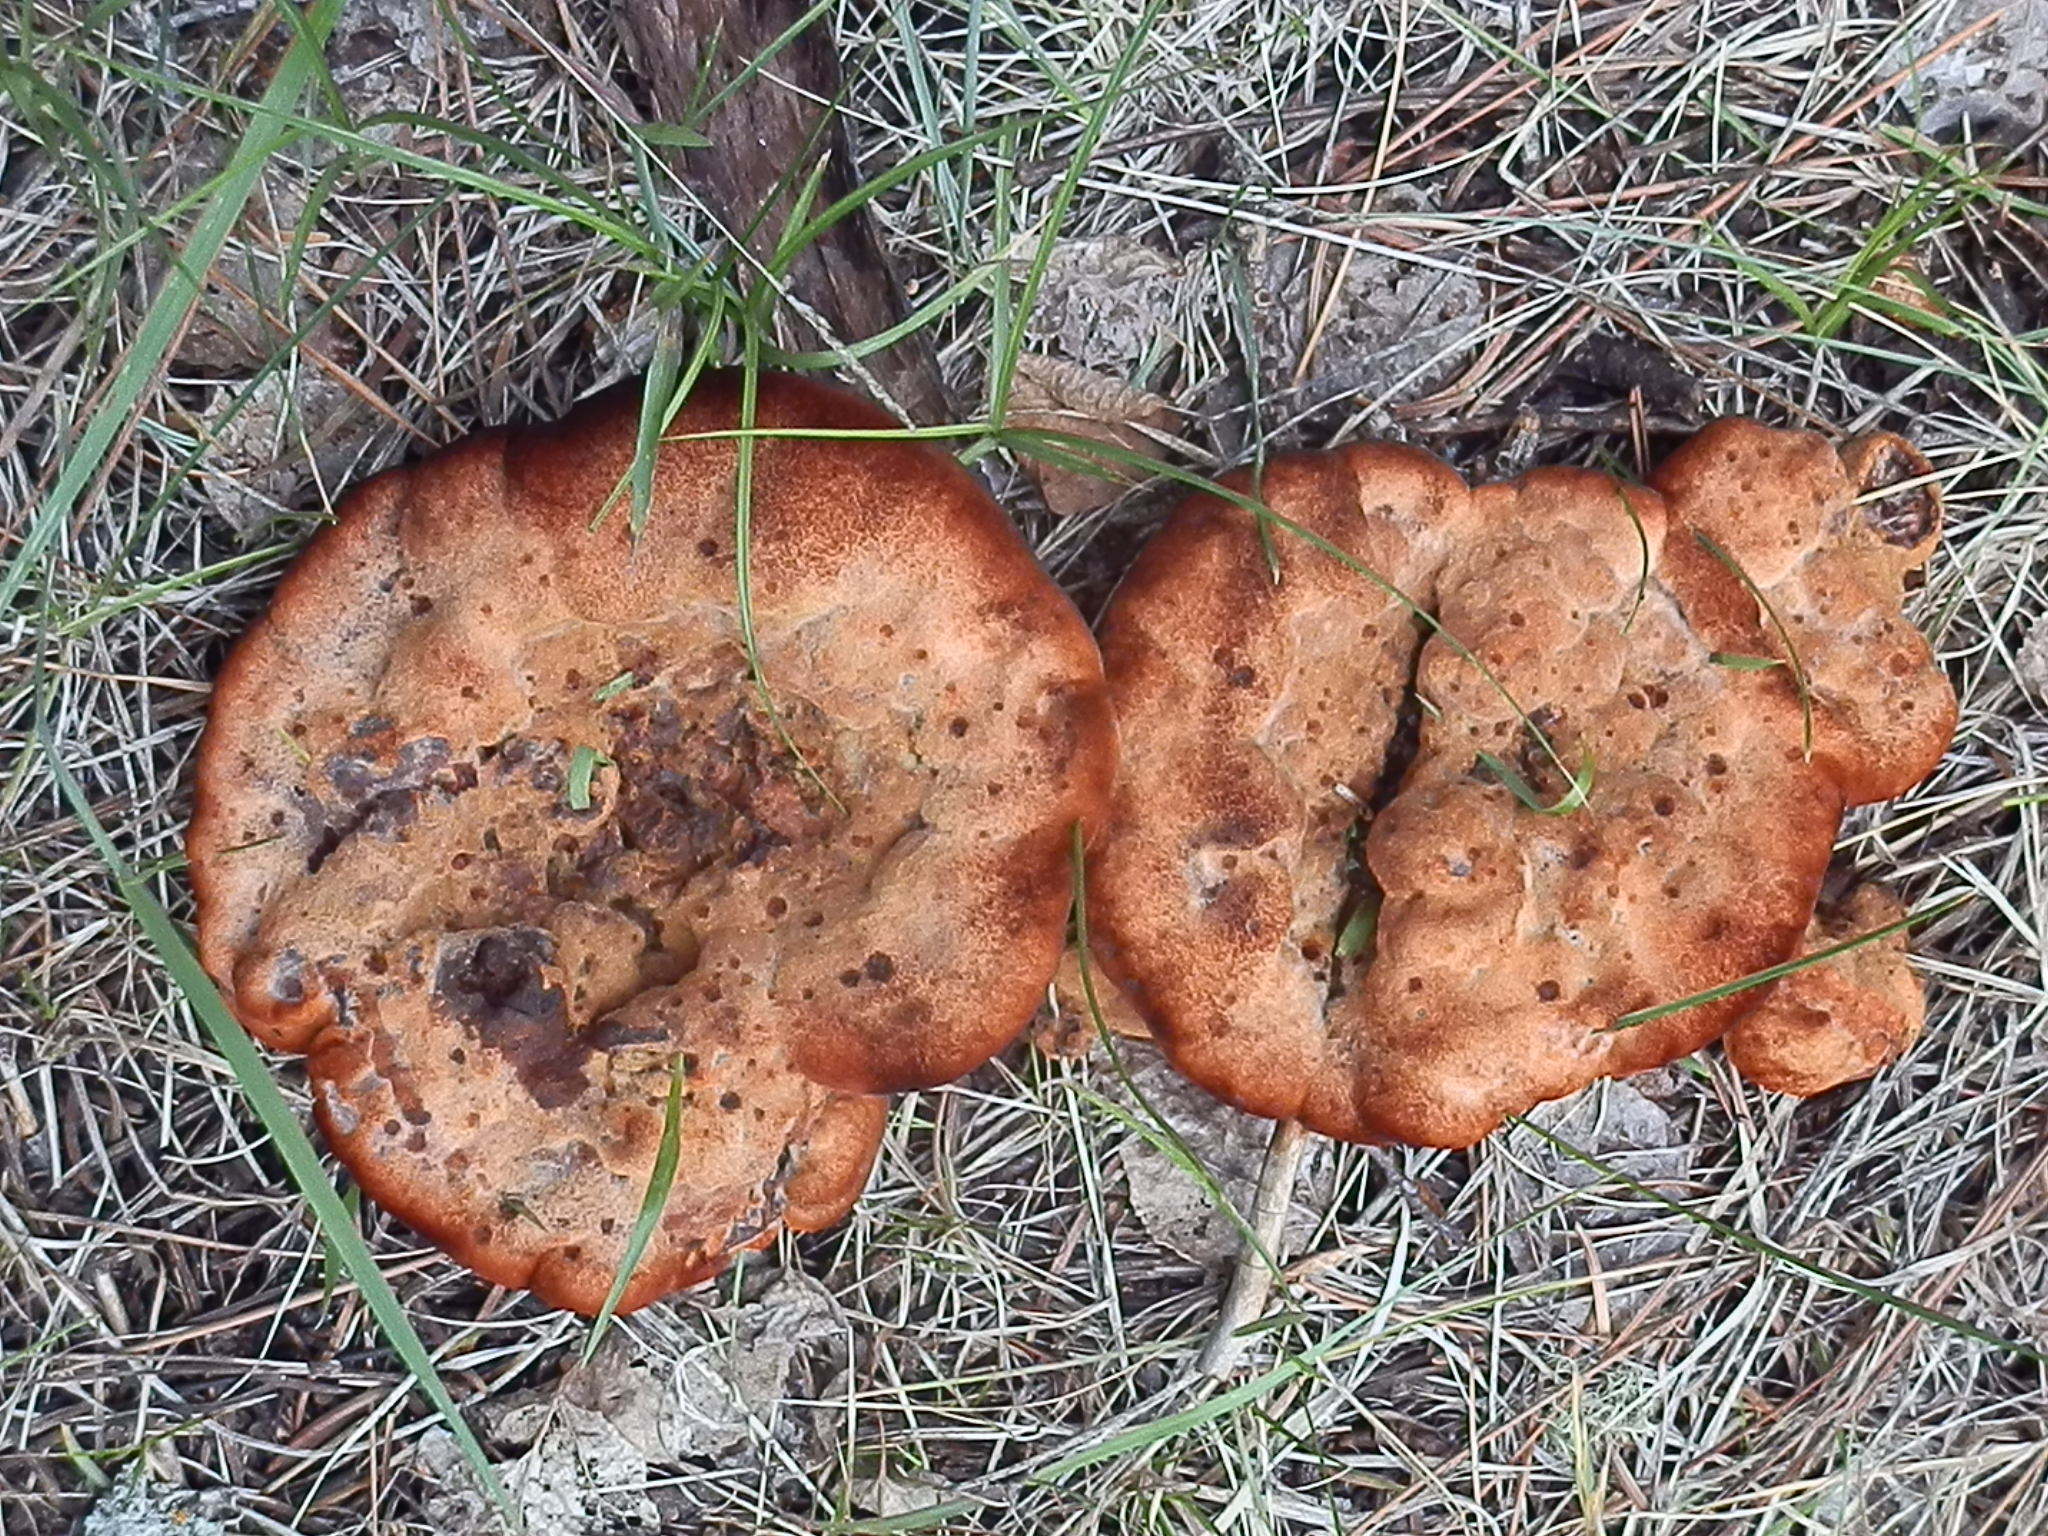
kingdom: Fungi
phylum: Basidiomycota
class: Agaricomycetes
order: Polyporales
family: Laetiporaceae
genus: Phaeolus
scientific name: Phaeolus schweinitzii
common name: Dyer's mazegill
